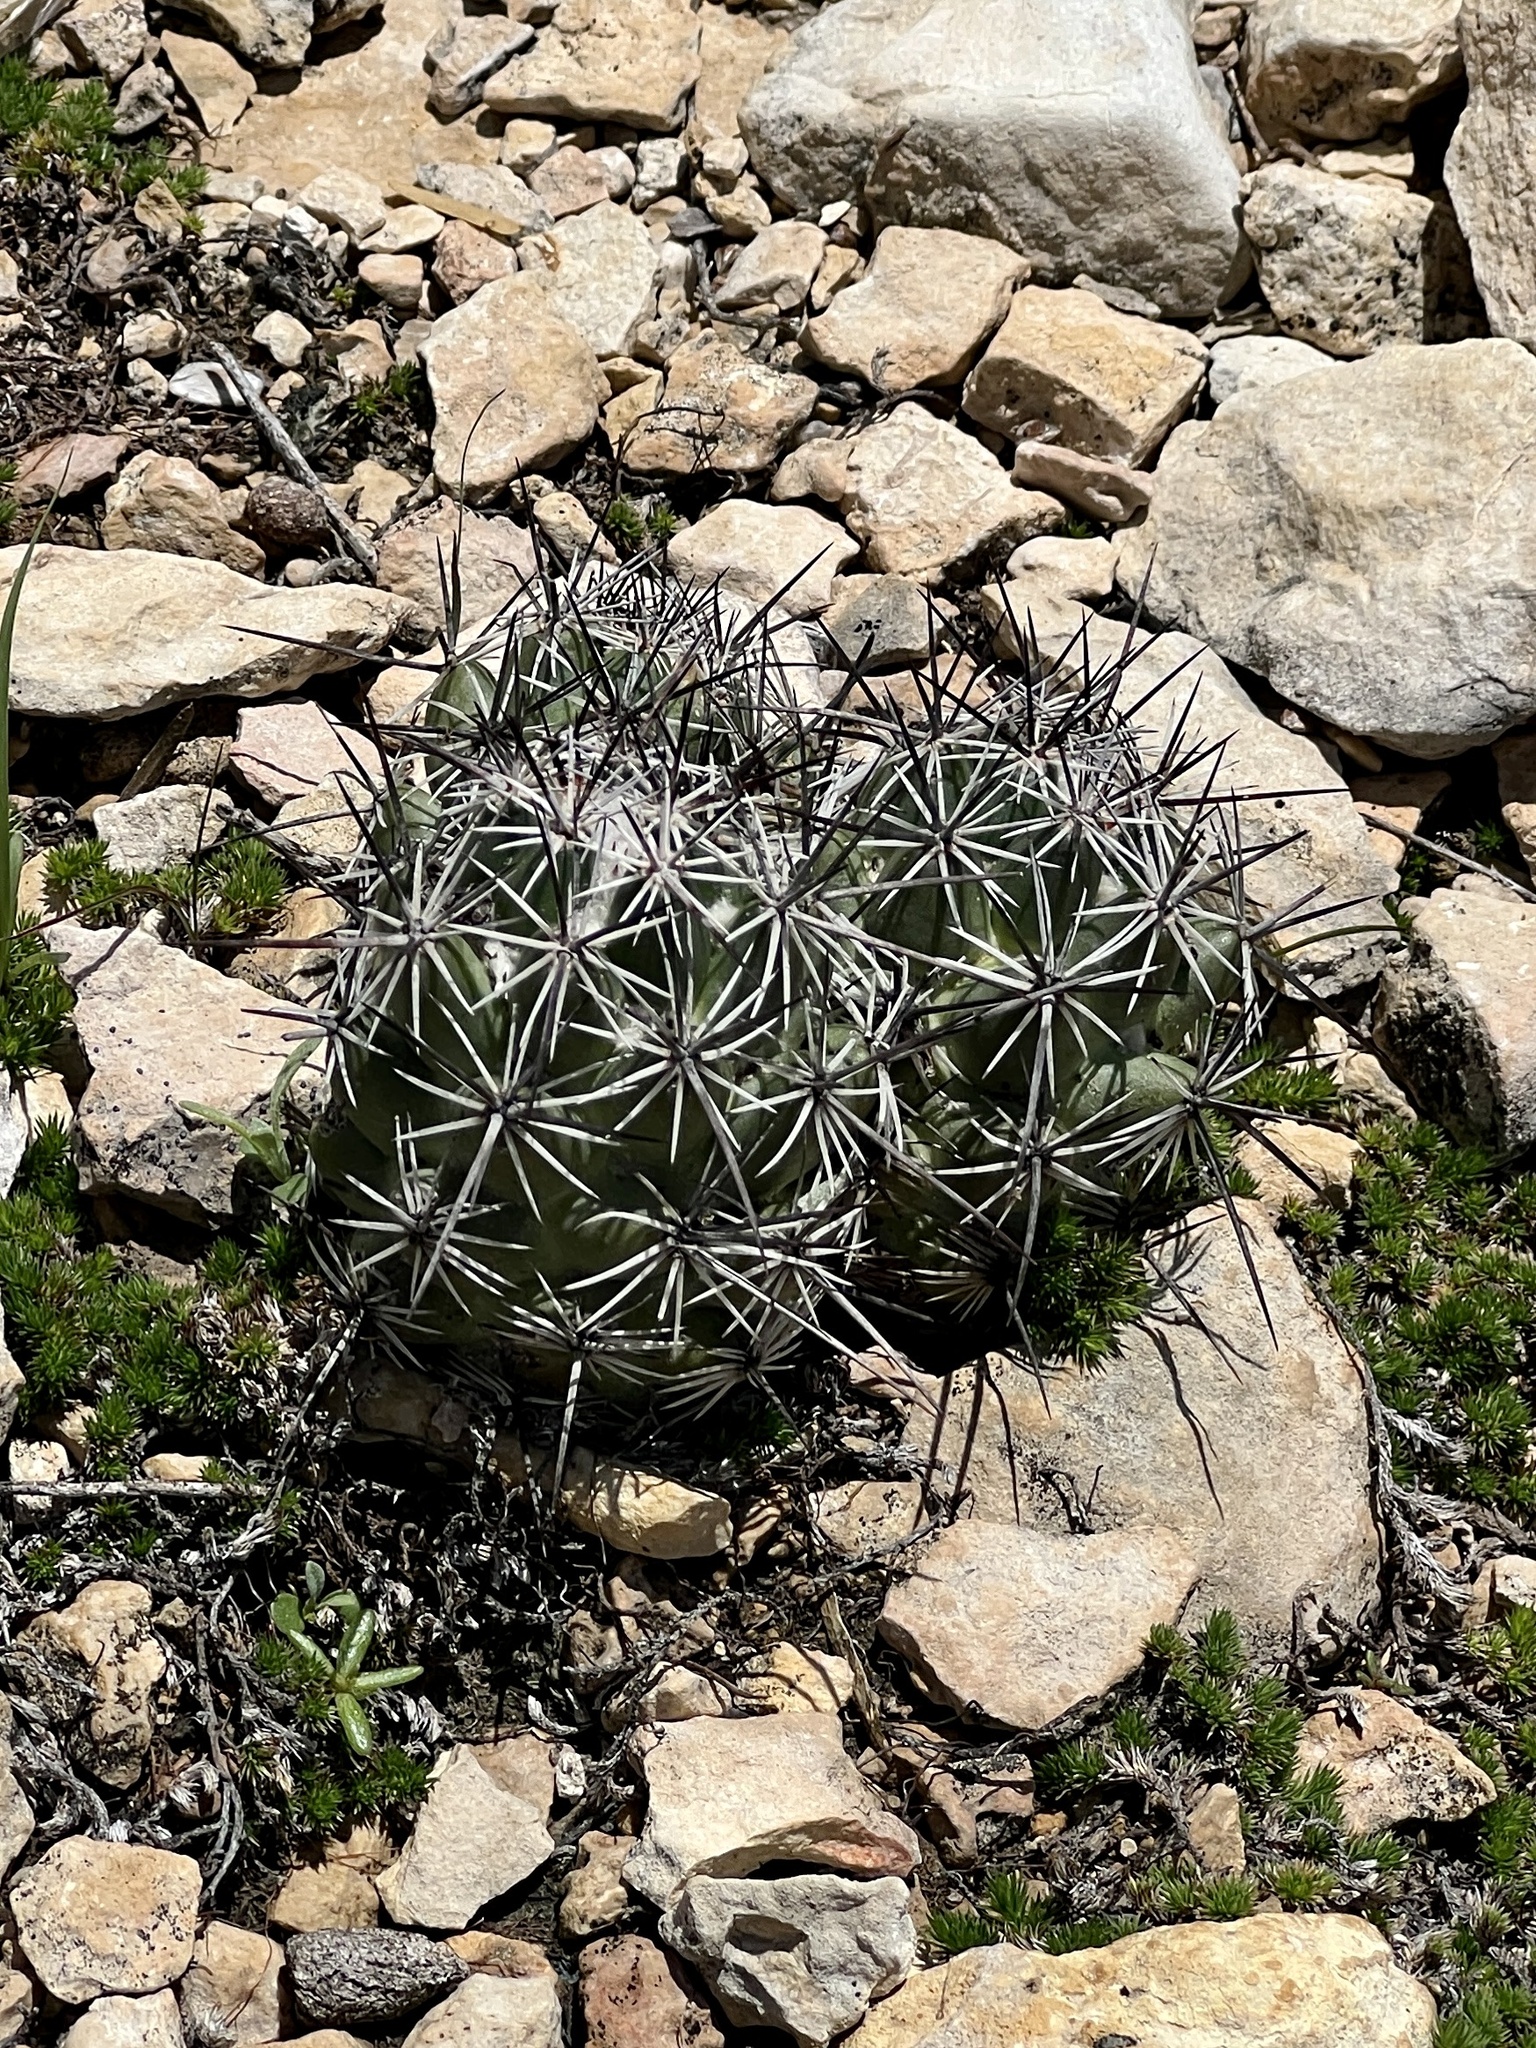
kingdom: Plantae
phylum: Tracheophyta
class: Magnoliopsida
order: Caryophyllales
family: Cactaceae
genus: Cochemiea
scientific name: Cochemiea conoidea
